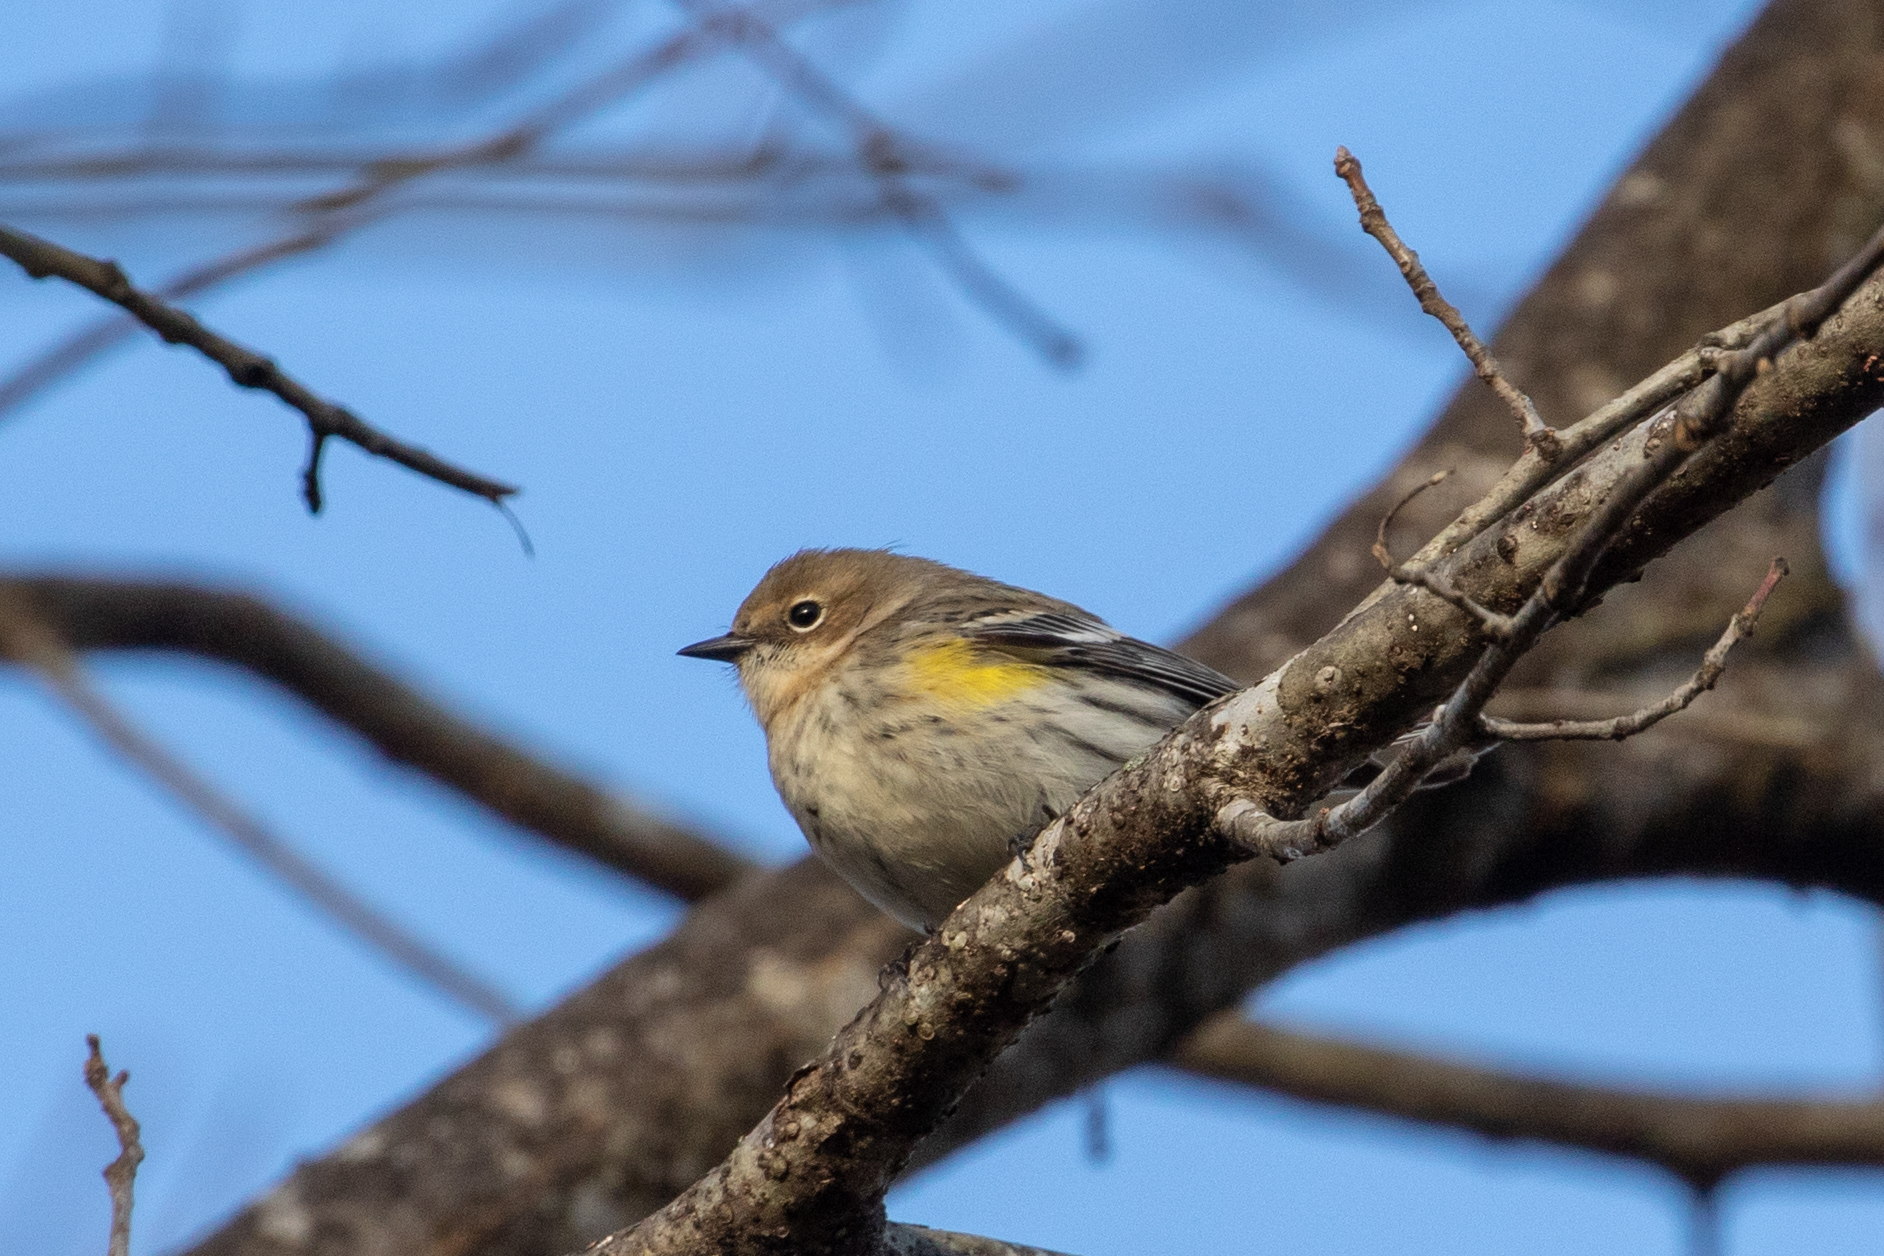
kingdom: Animalia
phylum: Chordata
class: Aves
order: Passeriformes
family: Parulidae
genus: Setophaga
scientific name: Setophaga coronata
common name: Myrtle warbler
